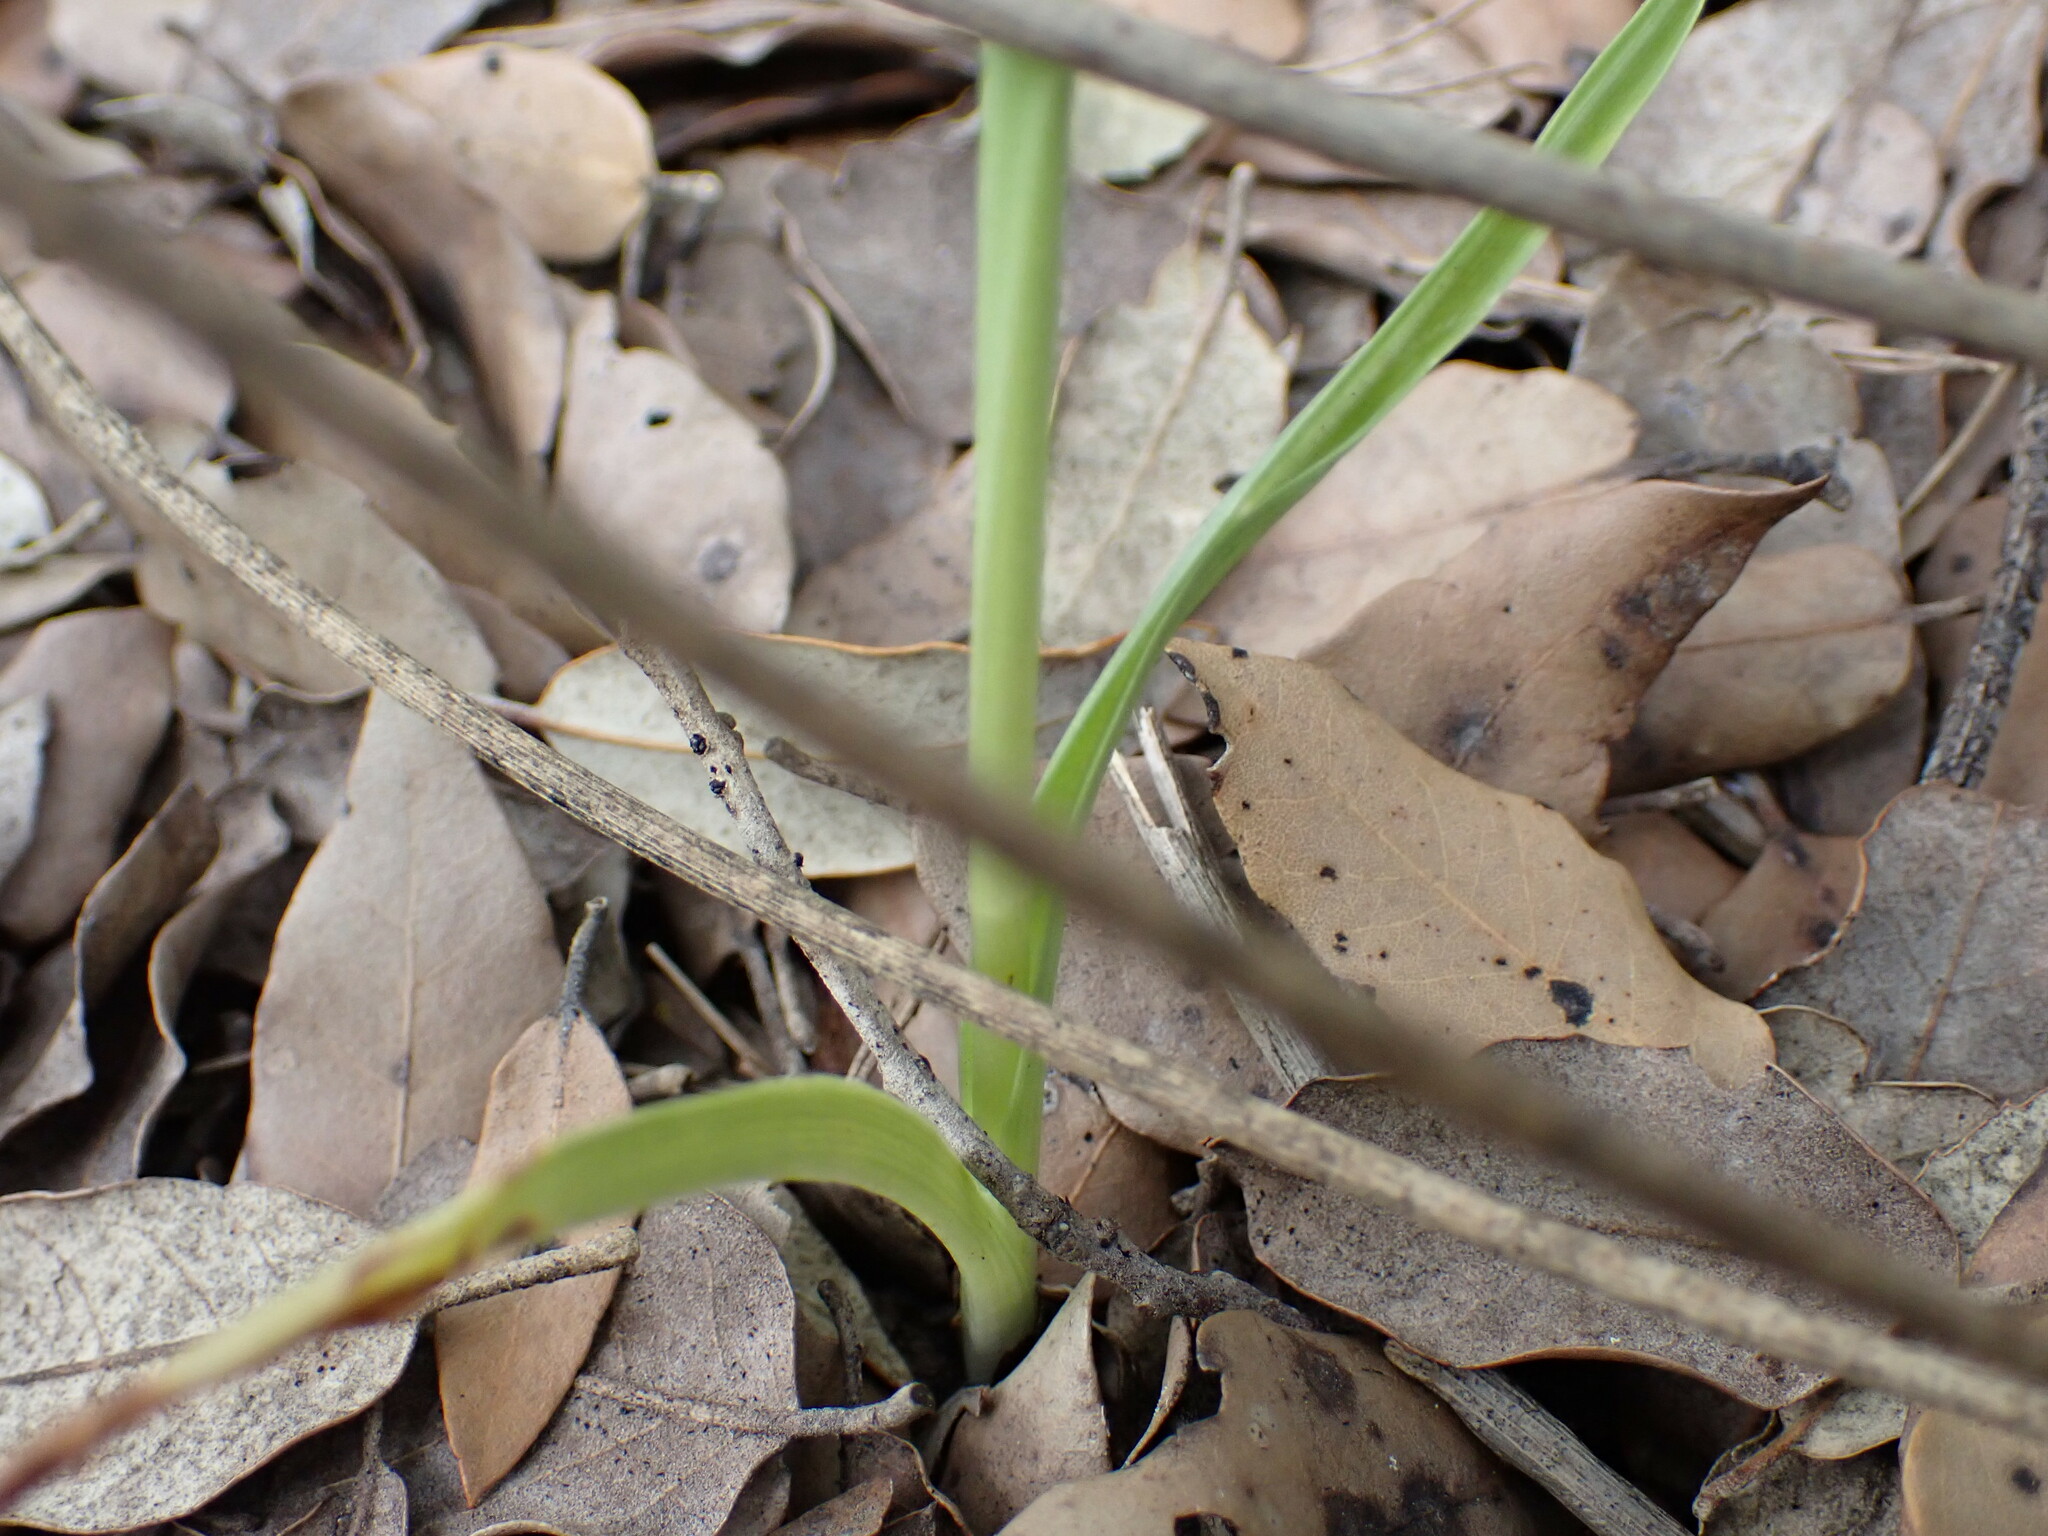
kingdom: Plantae
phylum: Tracheophyta
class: Liliopsida
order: Asparagales
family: Orchidaceae
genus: Anacamptis
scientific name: Anacamptis pyramidalis
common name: Pyramidal orchid
